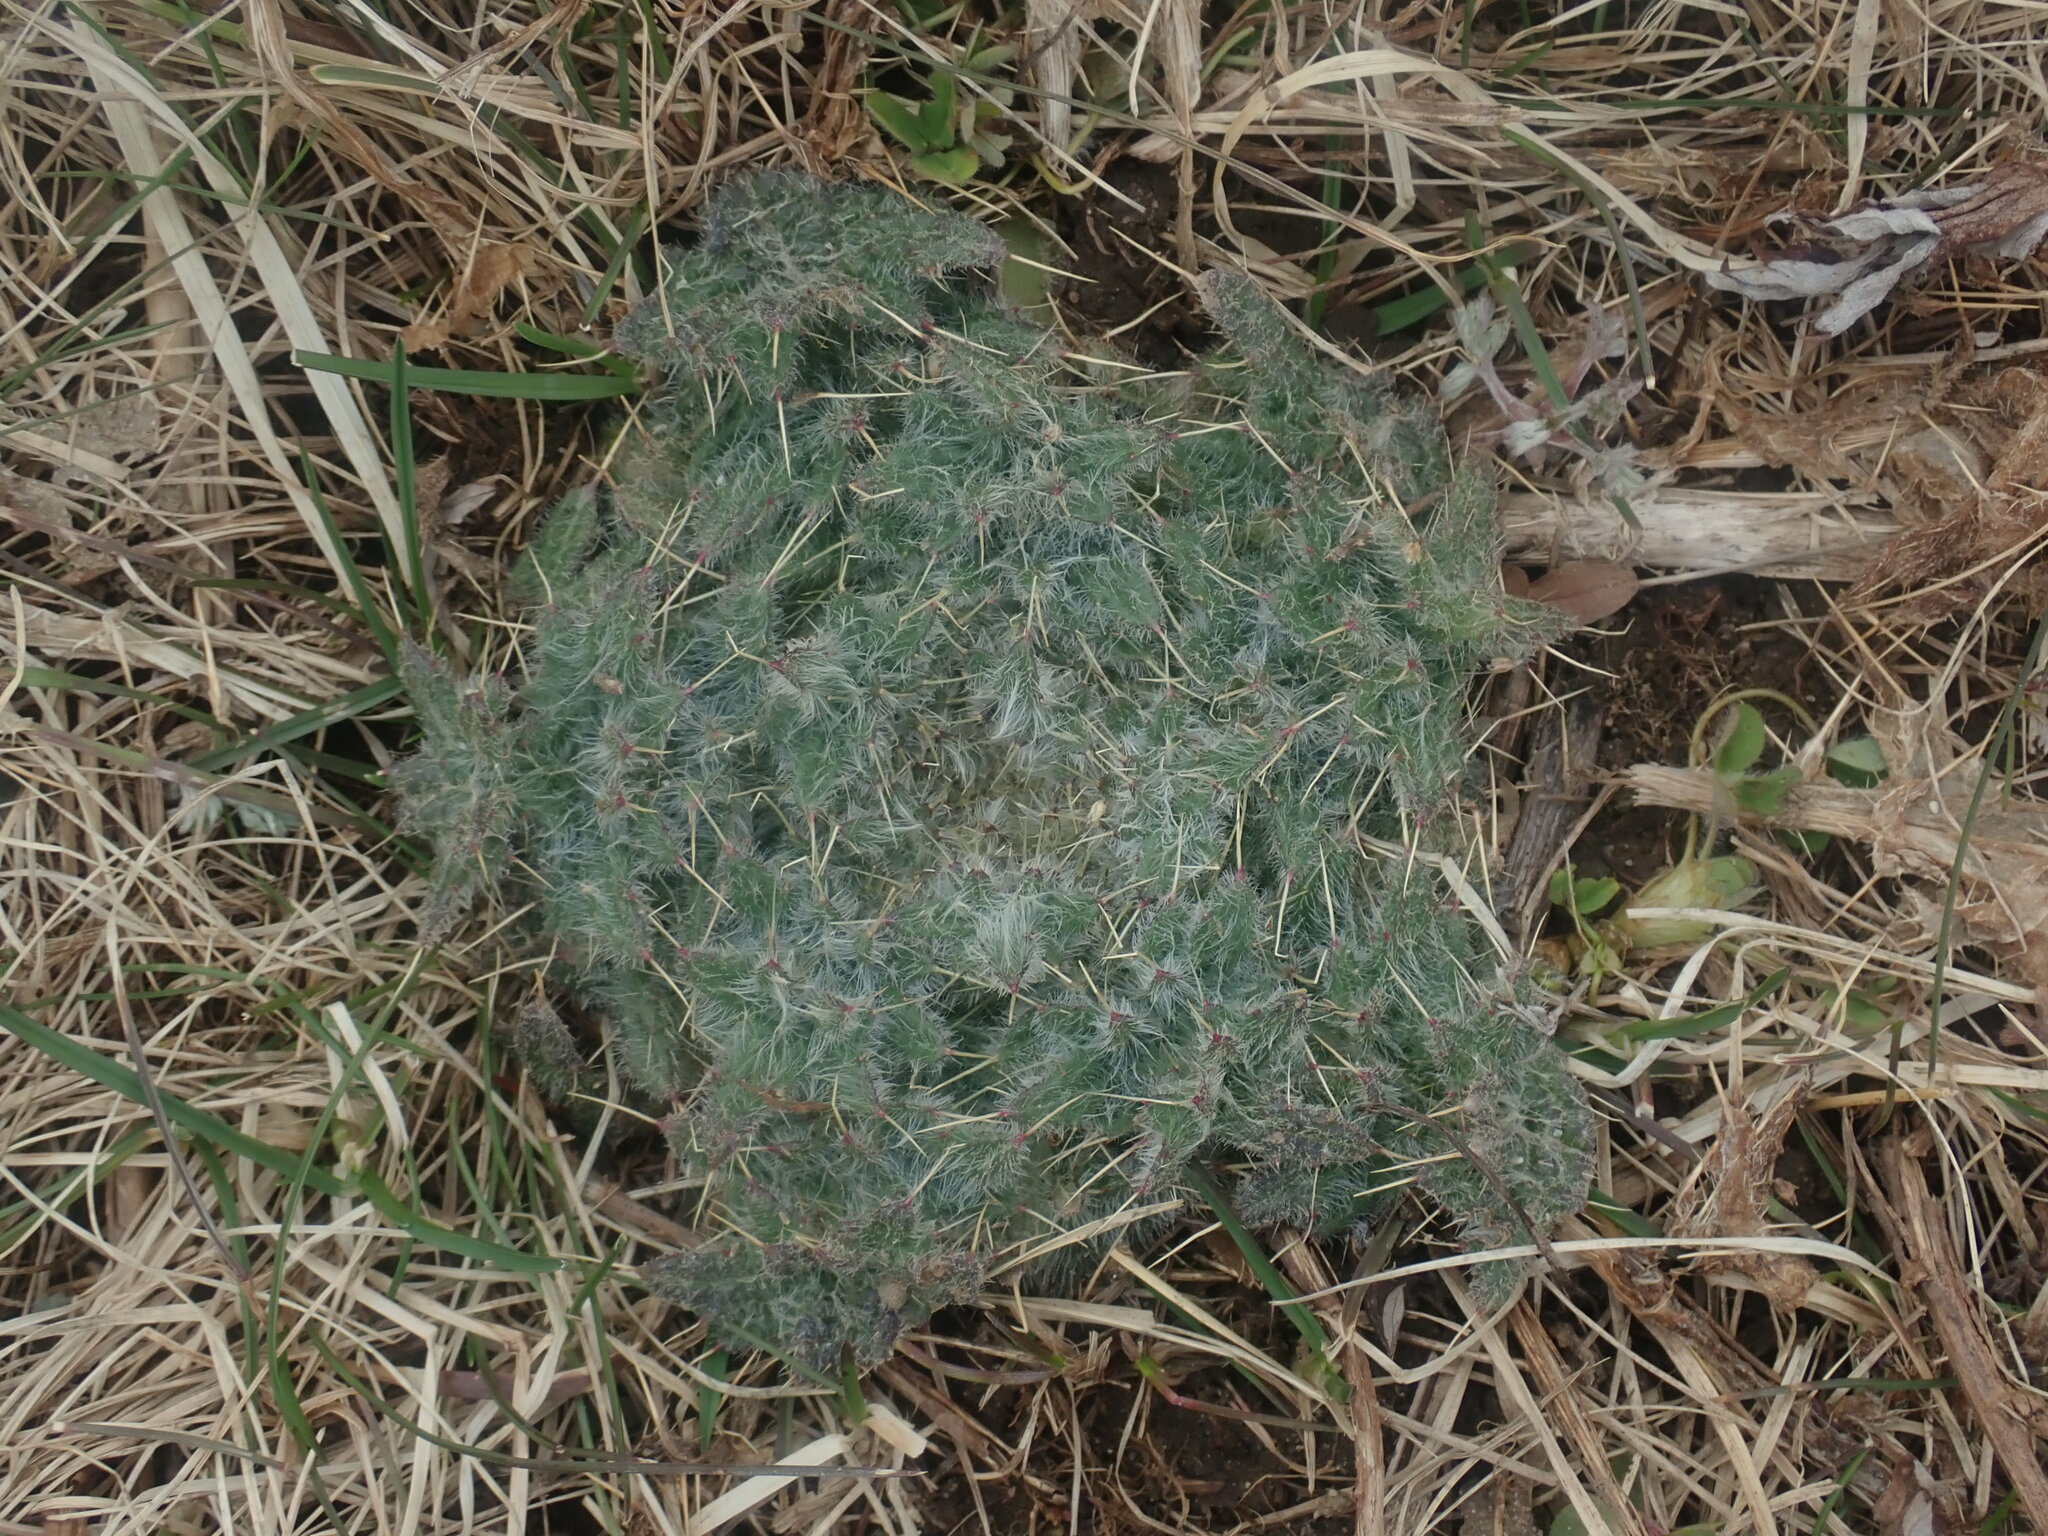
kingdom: Plantae
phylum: Tracheophyta
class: Magnoliopsida
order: Asterales
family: Asteraceae
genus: Cirsium
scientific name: Cirsium vulgare
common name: Bull thistle
